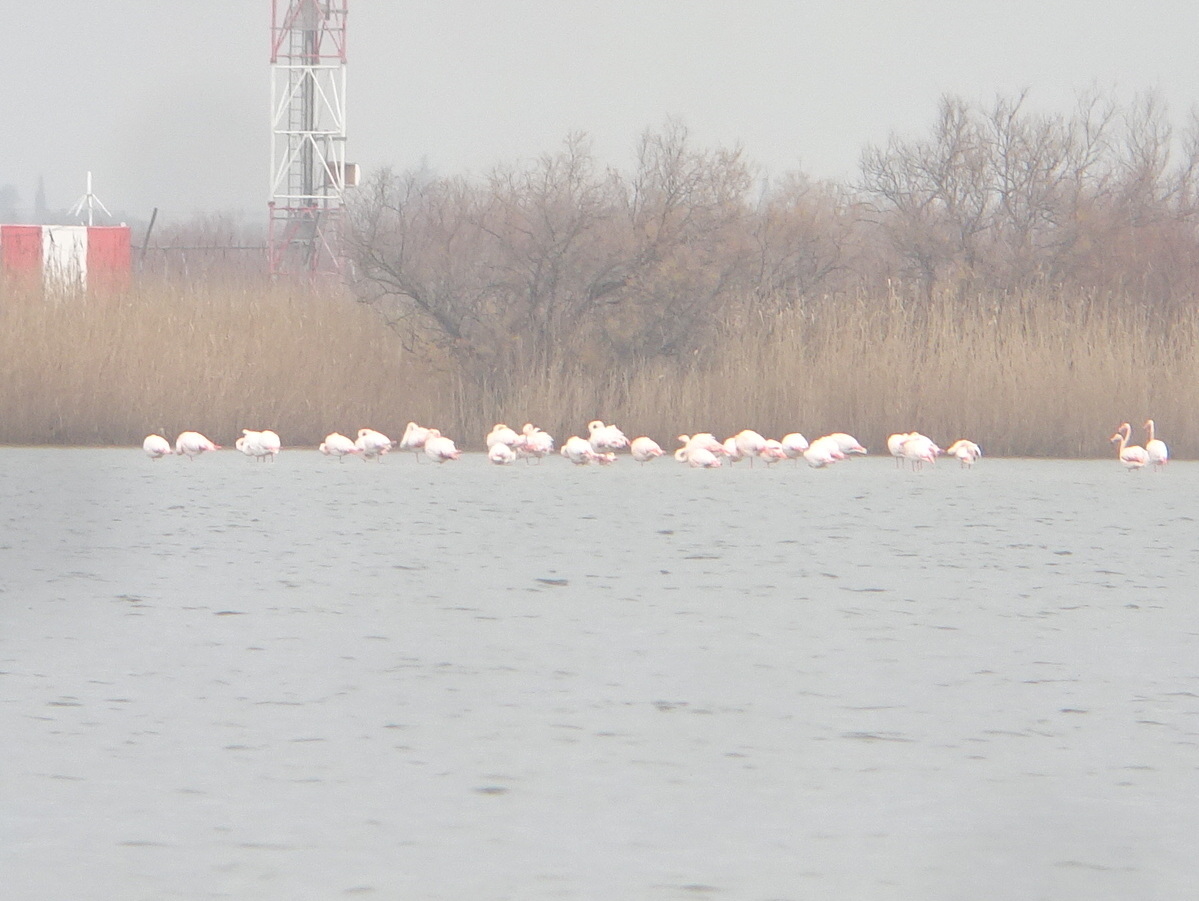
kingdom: Animalia
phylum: Chordata
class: Aves
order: Phoenicopteriformes
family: Phoenicopteridae
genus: Phoenicopterus
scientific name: Phoenicopterus roseus
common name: Greater flamingo
